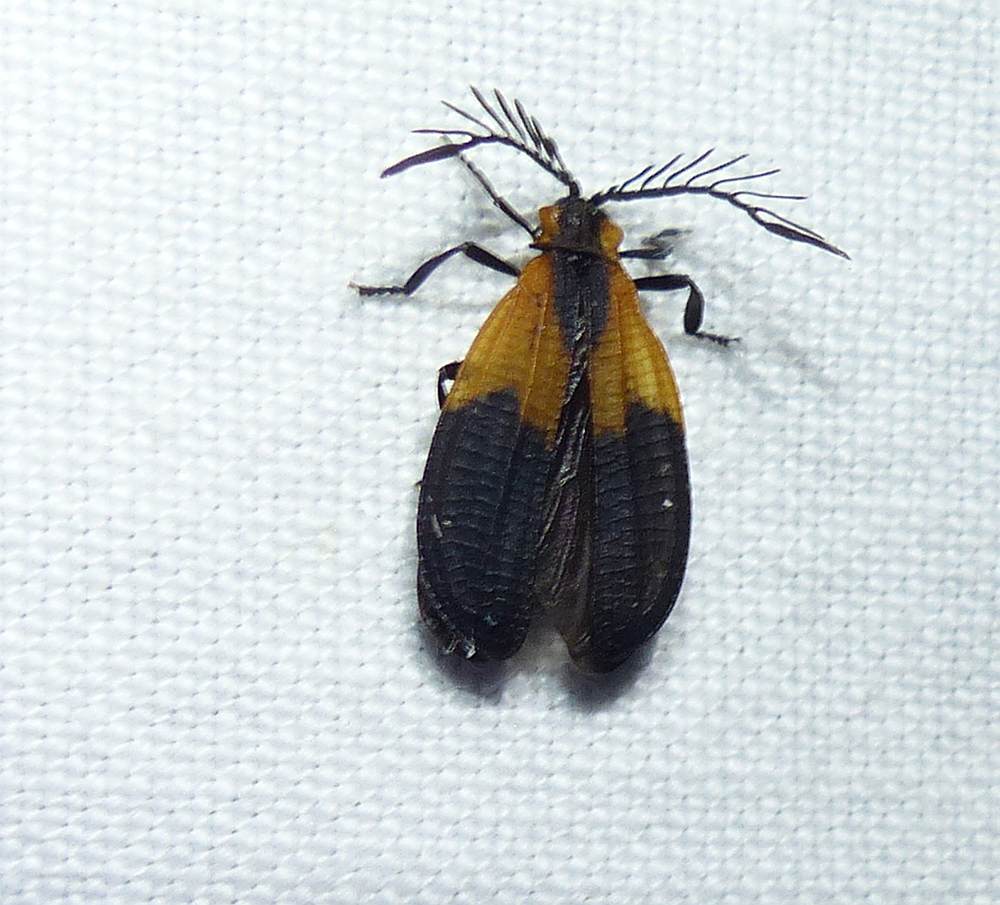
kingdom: Animalia
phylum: Arthropoda
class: Insecta
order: Coleoptera
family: Lycidae
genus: Caenia
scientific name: Caenia dimidiata
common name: Terminal net-winged beetle
